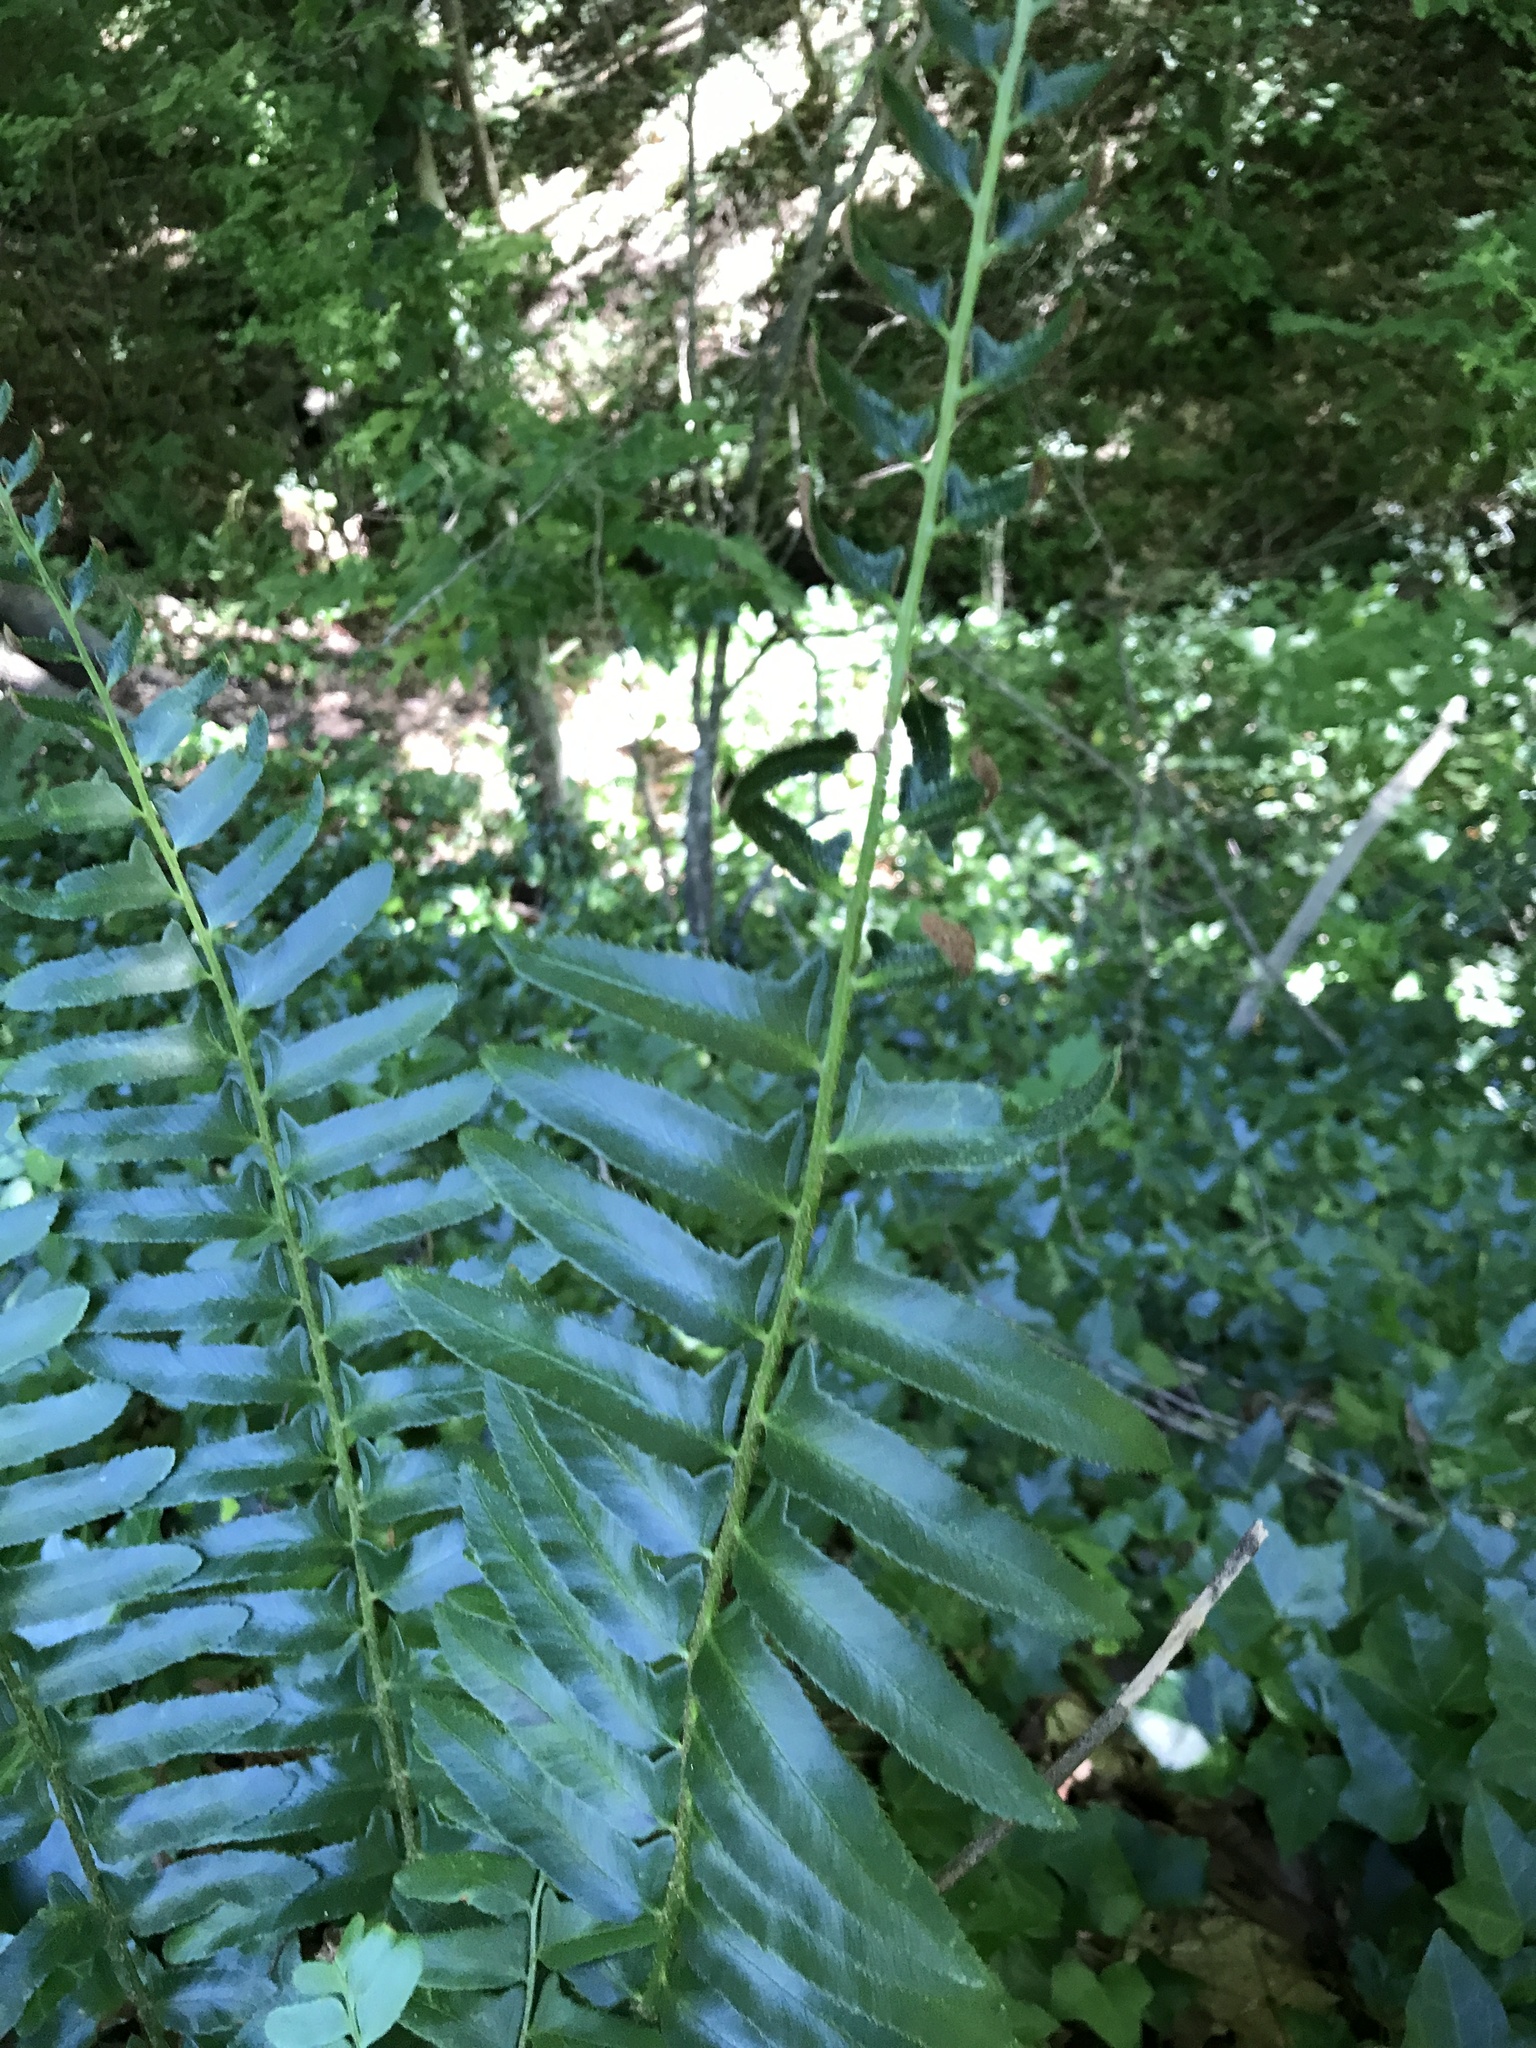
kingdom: Plantae
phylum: Tracheophyta
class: Polypodiopsida
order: Polypodiales
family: Dryopteridaceae
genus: Polystichum
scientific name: Polystichum acrostichoides
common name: Christmas fern
